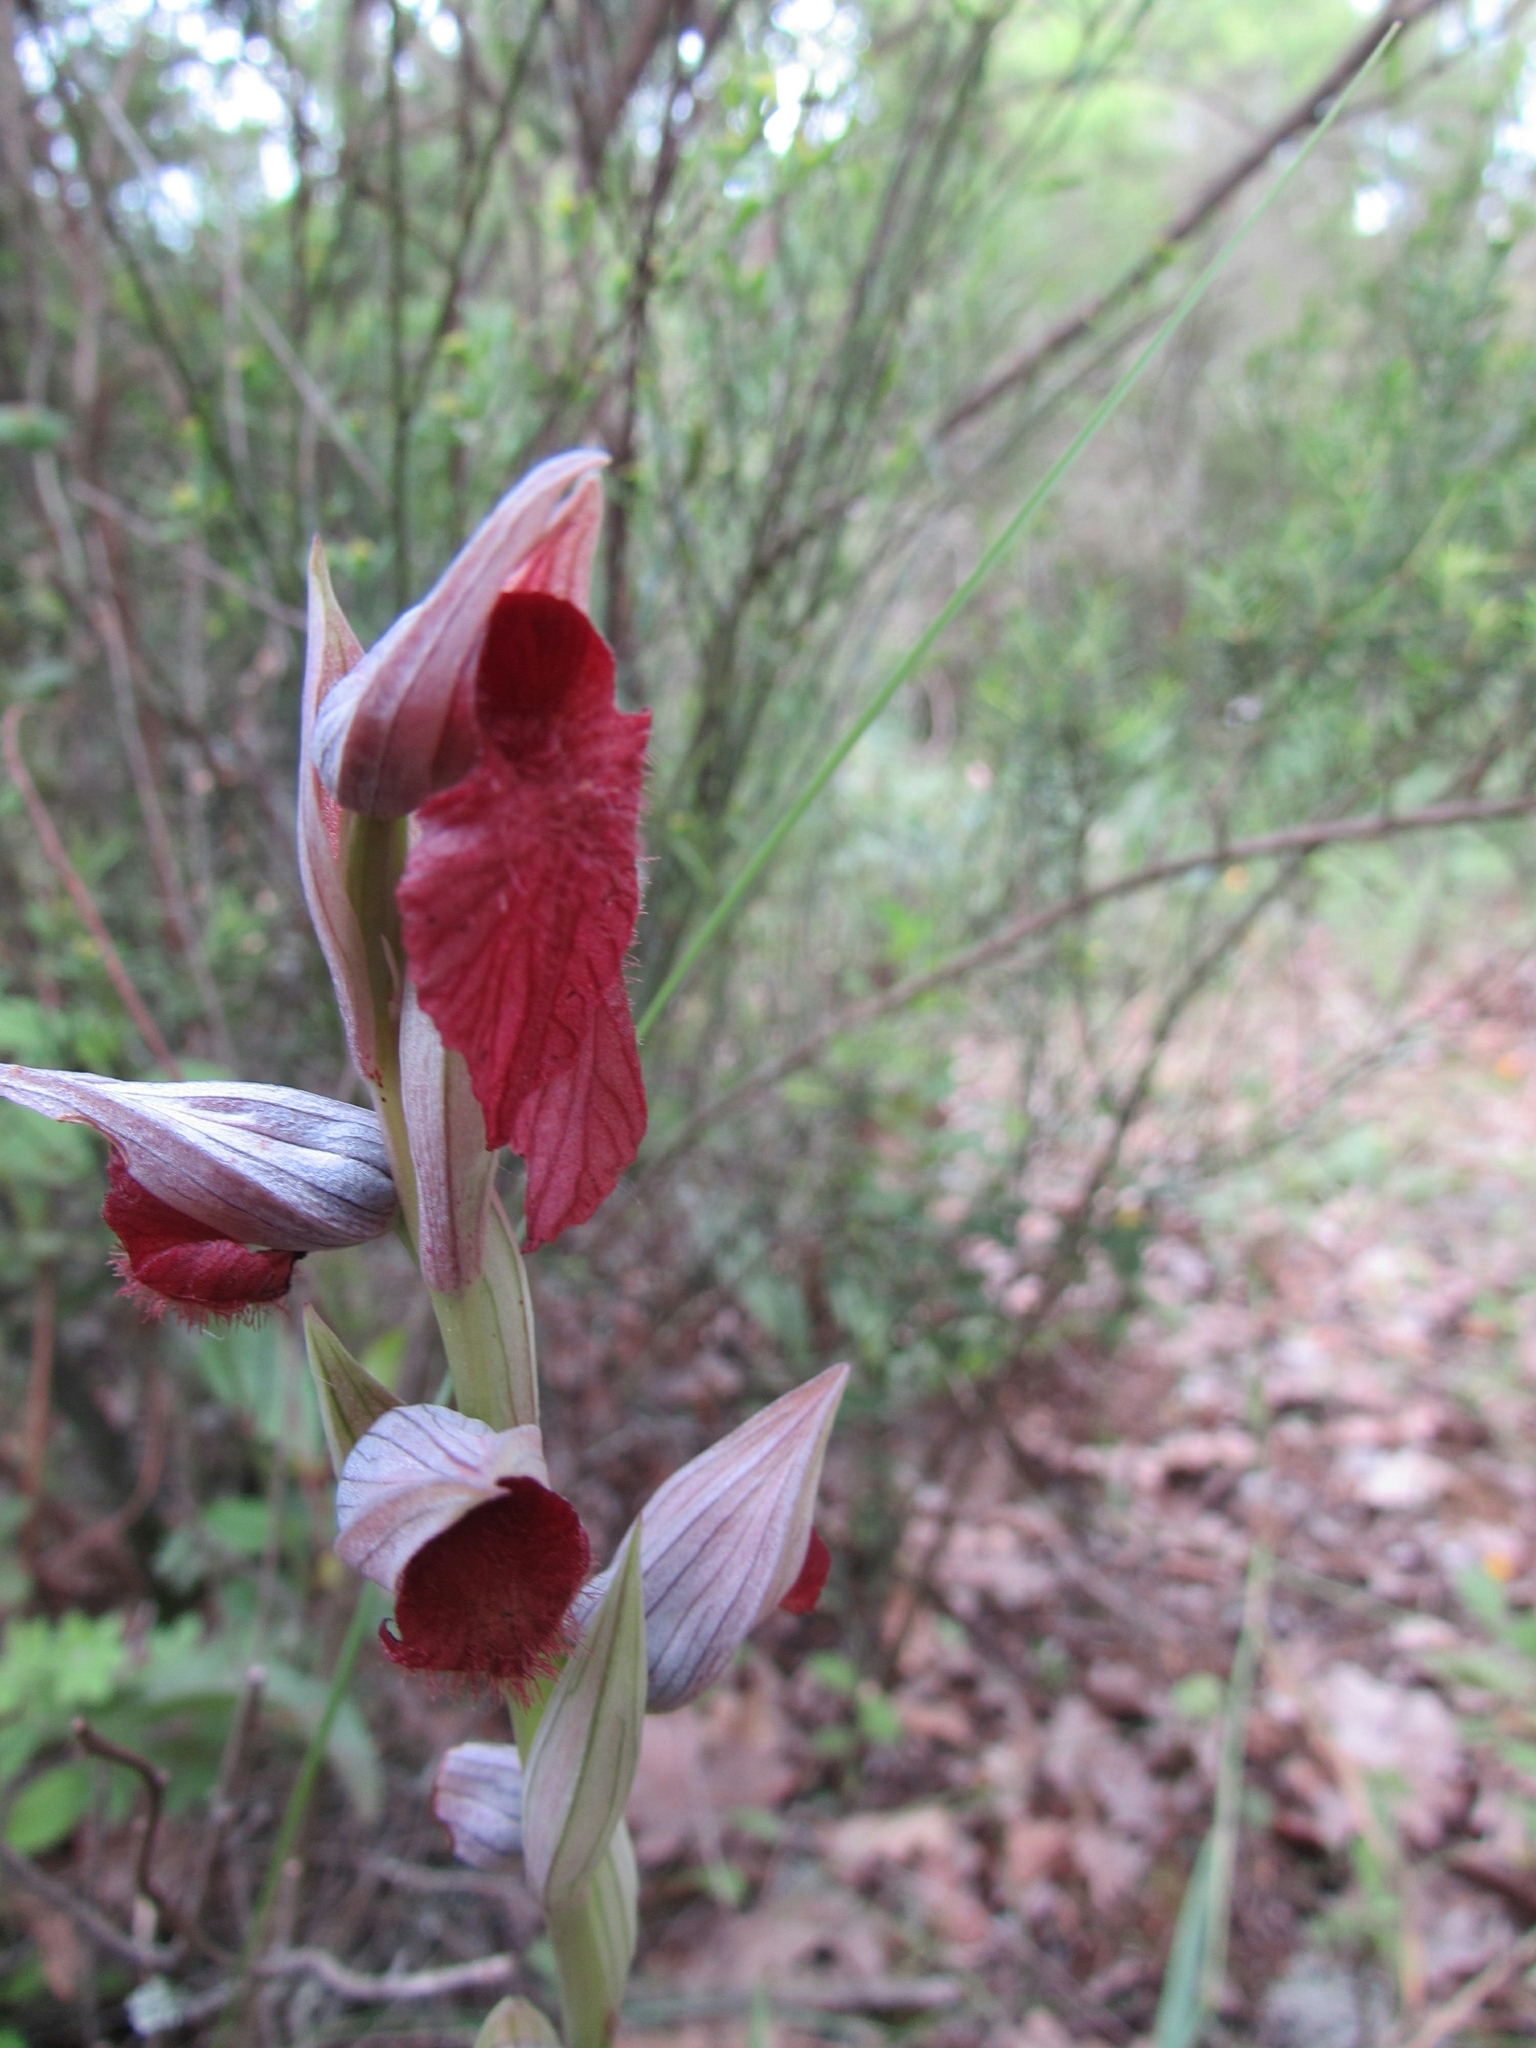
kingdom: Plantae
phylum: Tracheophyta
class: Liliopsida
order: Asparagales
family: Orchidaceae
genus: Serapias
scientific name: Serapias cordigera
